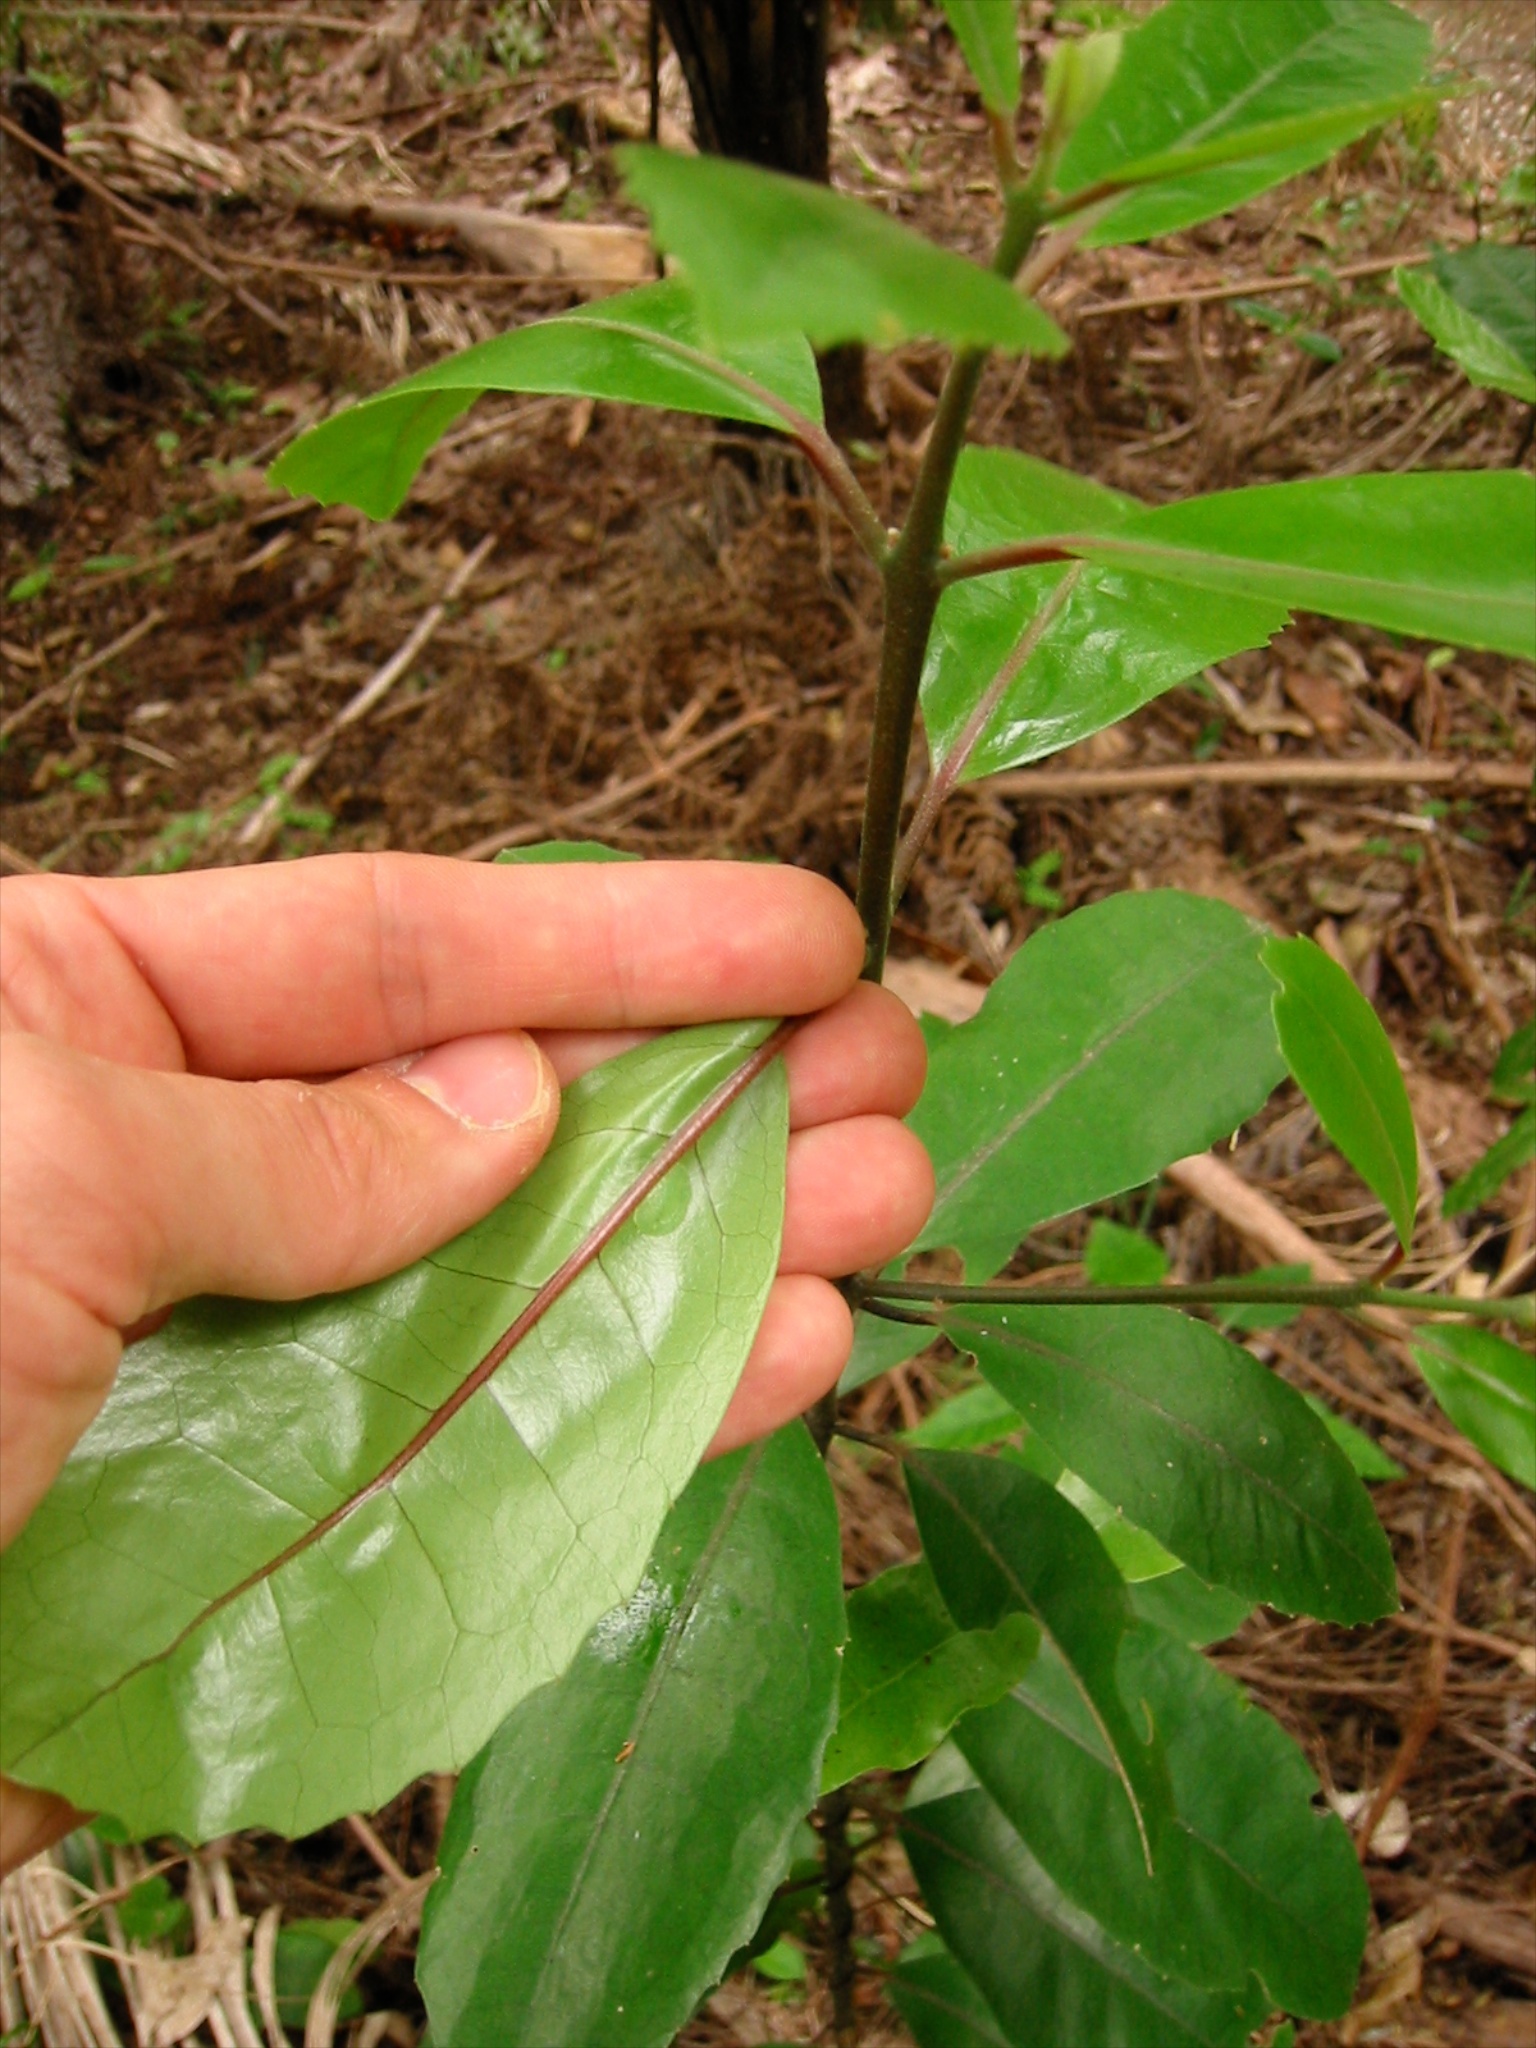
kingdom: Animalia
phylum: Arthropoda
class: Insecta
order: Hemiptera
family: Coccidae
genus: Ctenochiton
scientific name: Ctenochiton paraviridis
